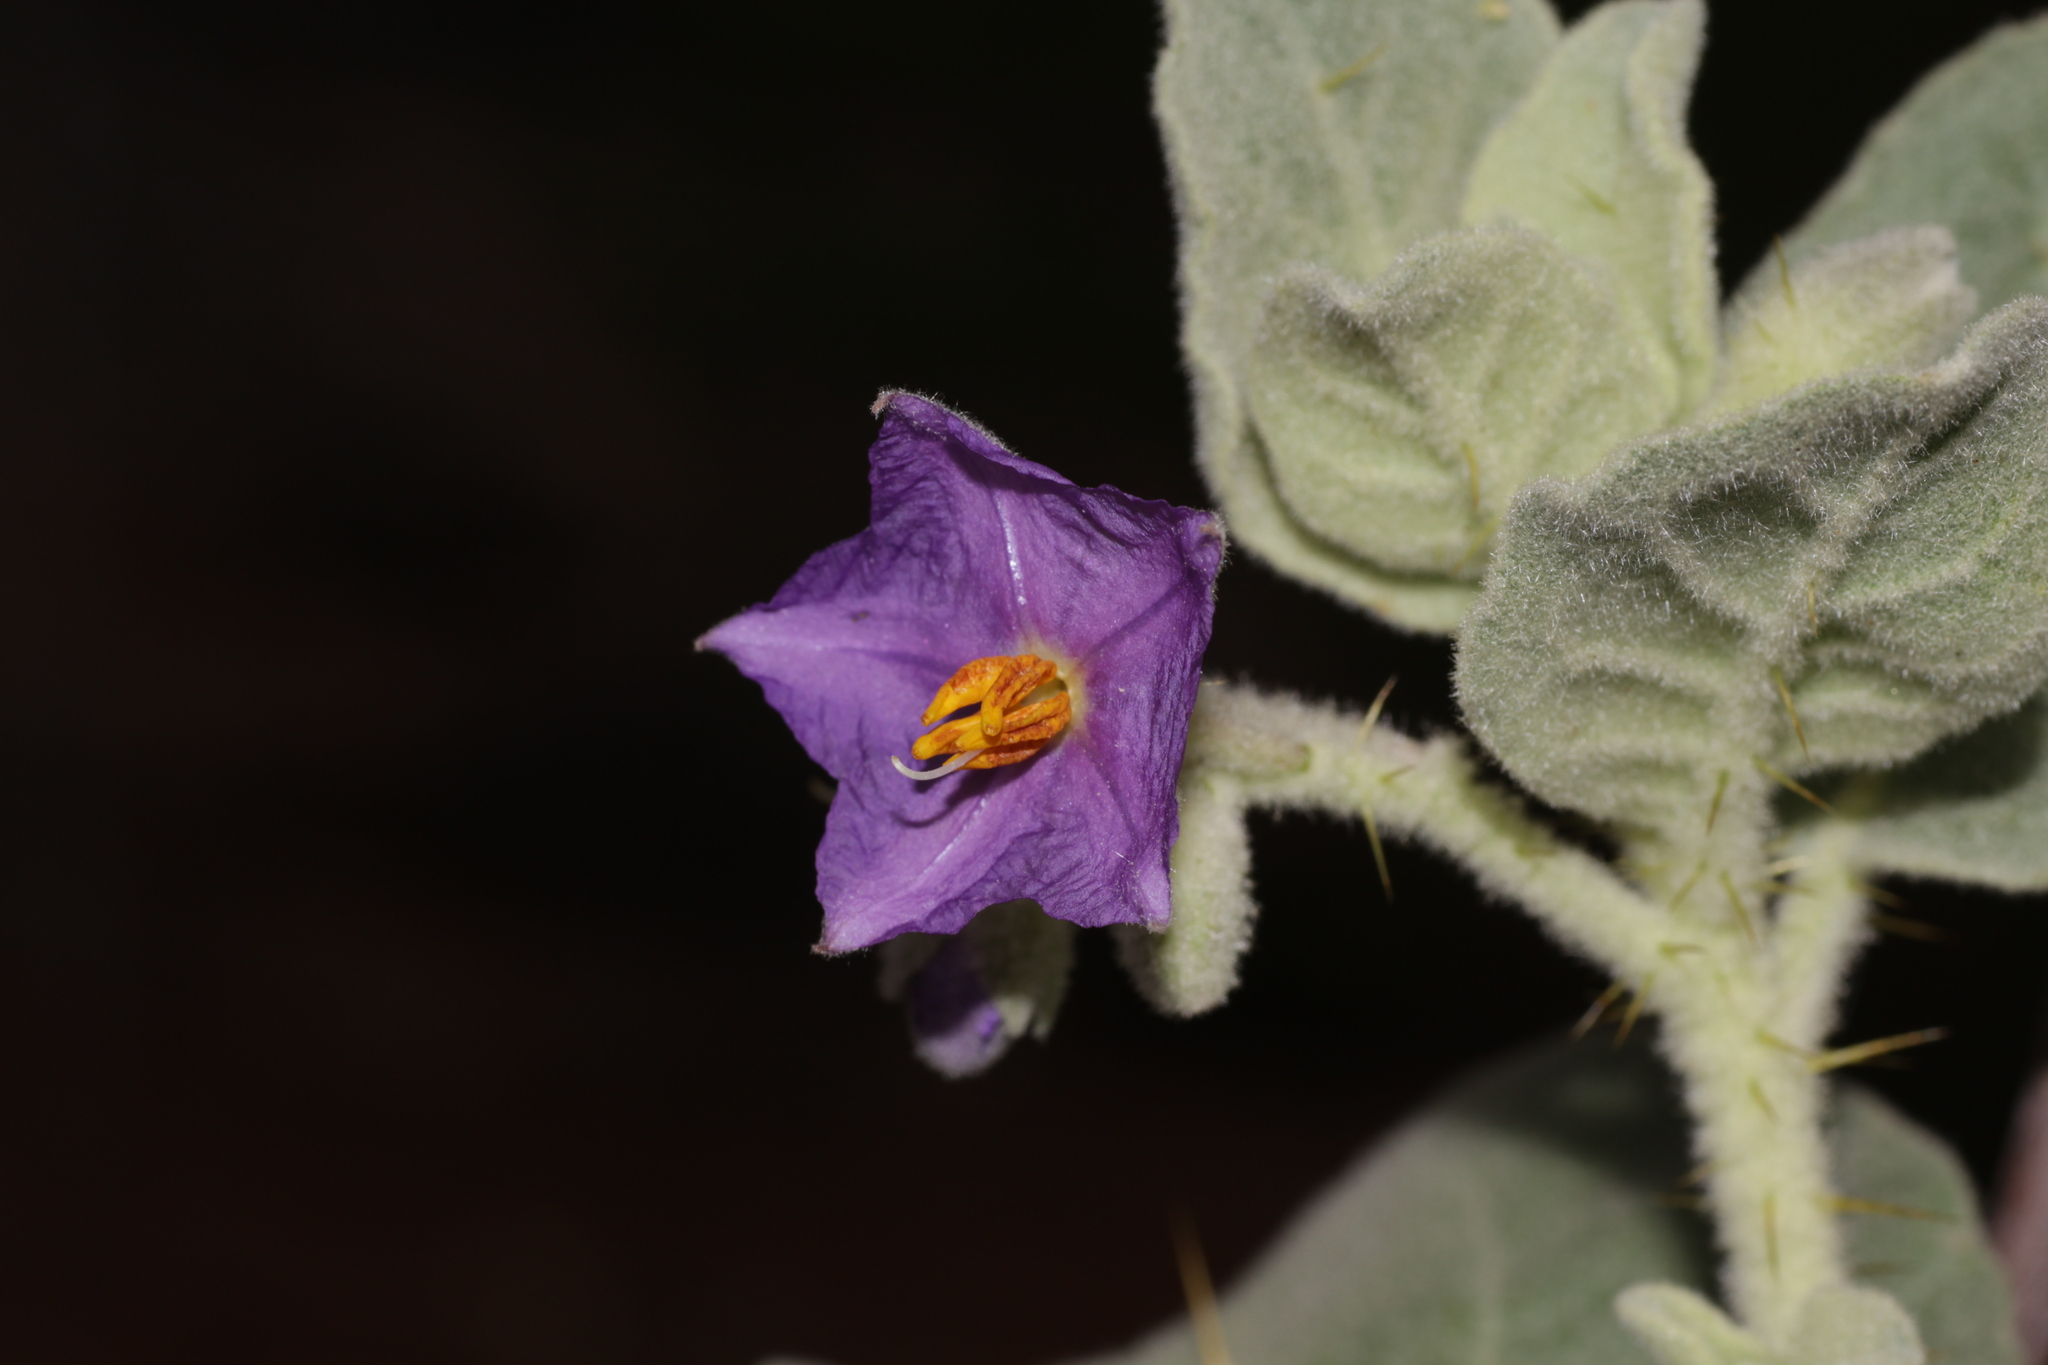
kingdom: Plantae
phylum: Tracheophyta
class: Magnoliopsida
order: Solanales
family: Solanaceae
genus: Solanum
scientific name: Solanum lasiophyllum
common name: Flannelbush
